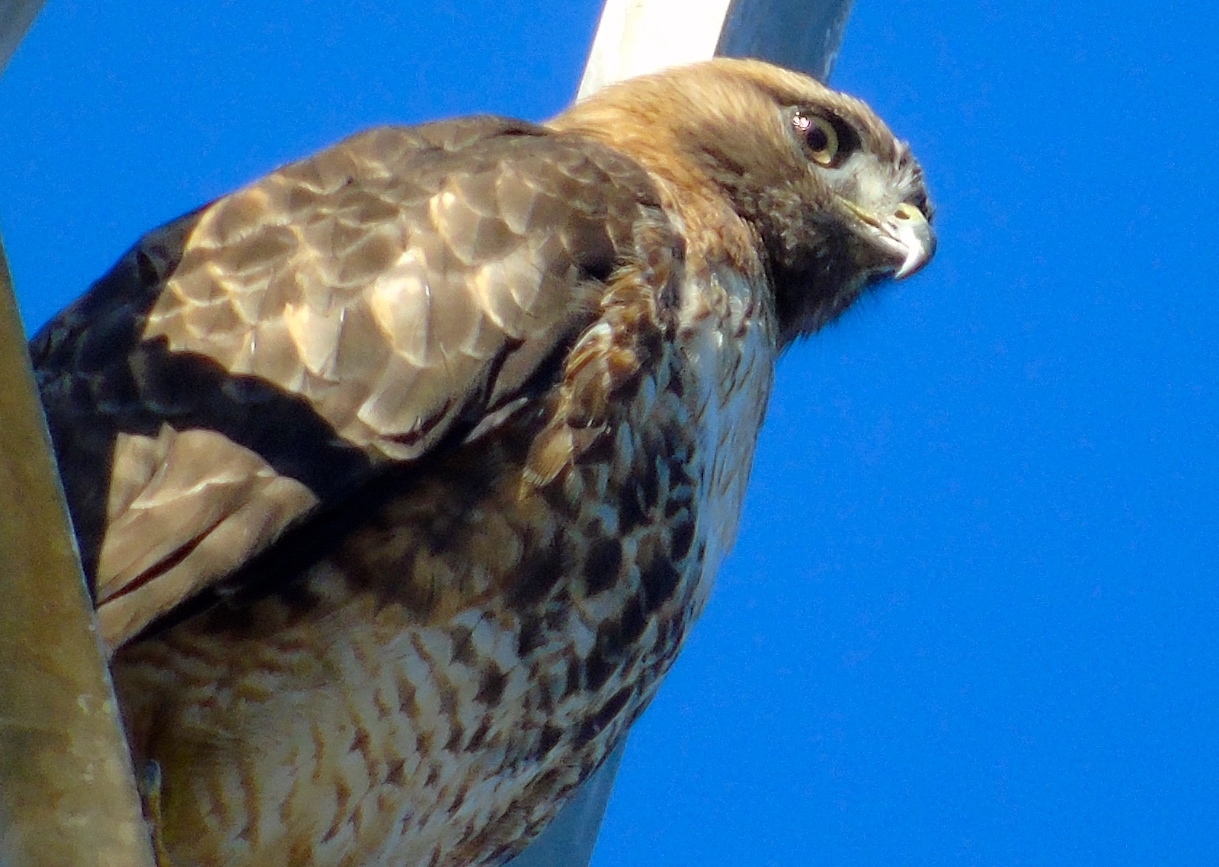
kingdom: Animalia
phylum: Chordata
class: Aves
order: Accipitriformes
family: Accipitridae
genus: Buteo
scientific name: Buteo jamaicensis
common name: Red-tailed hawk
